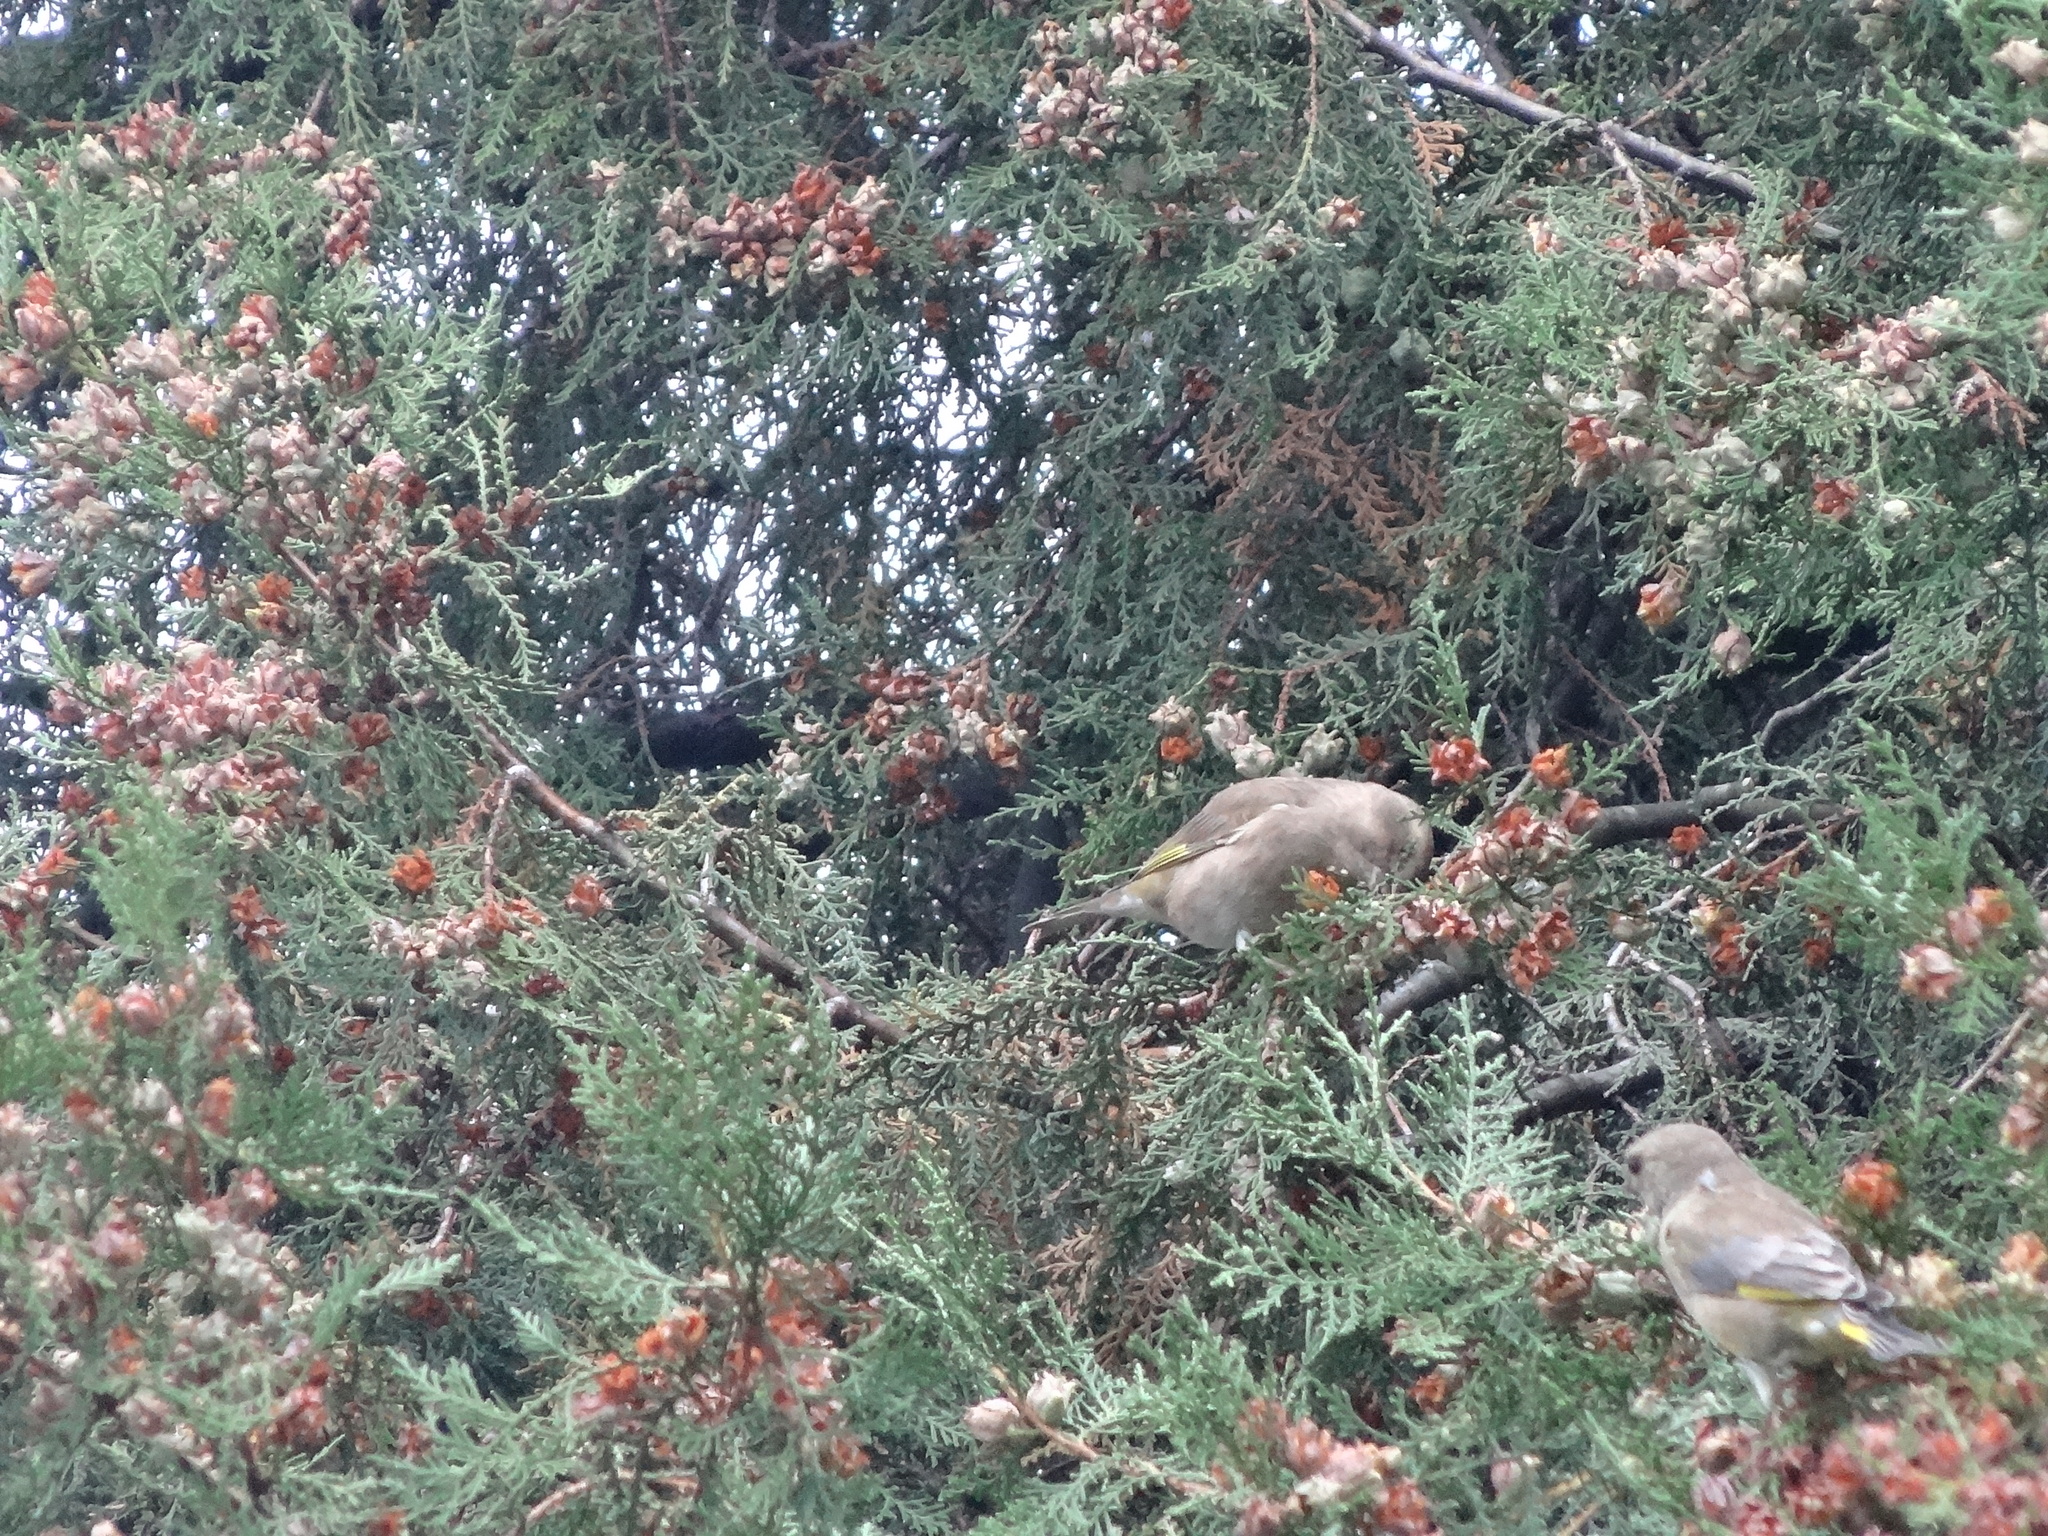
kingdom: Plantae
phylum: Tracheophyta
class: Liliopsida
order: Poales
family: Poaceae
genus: Chloris
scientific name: Chloris chloris
